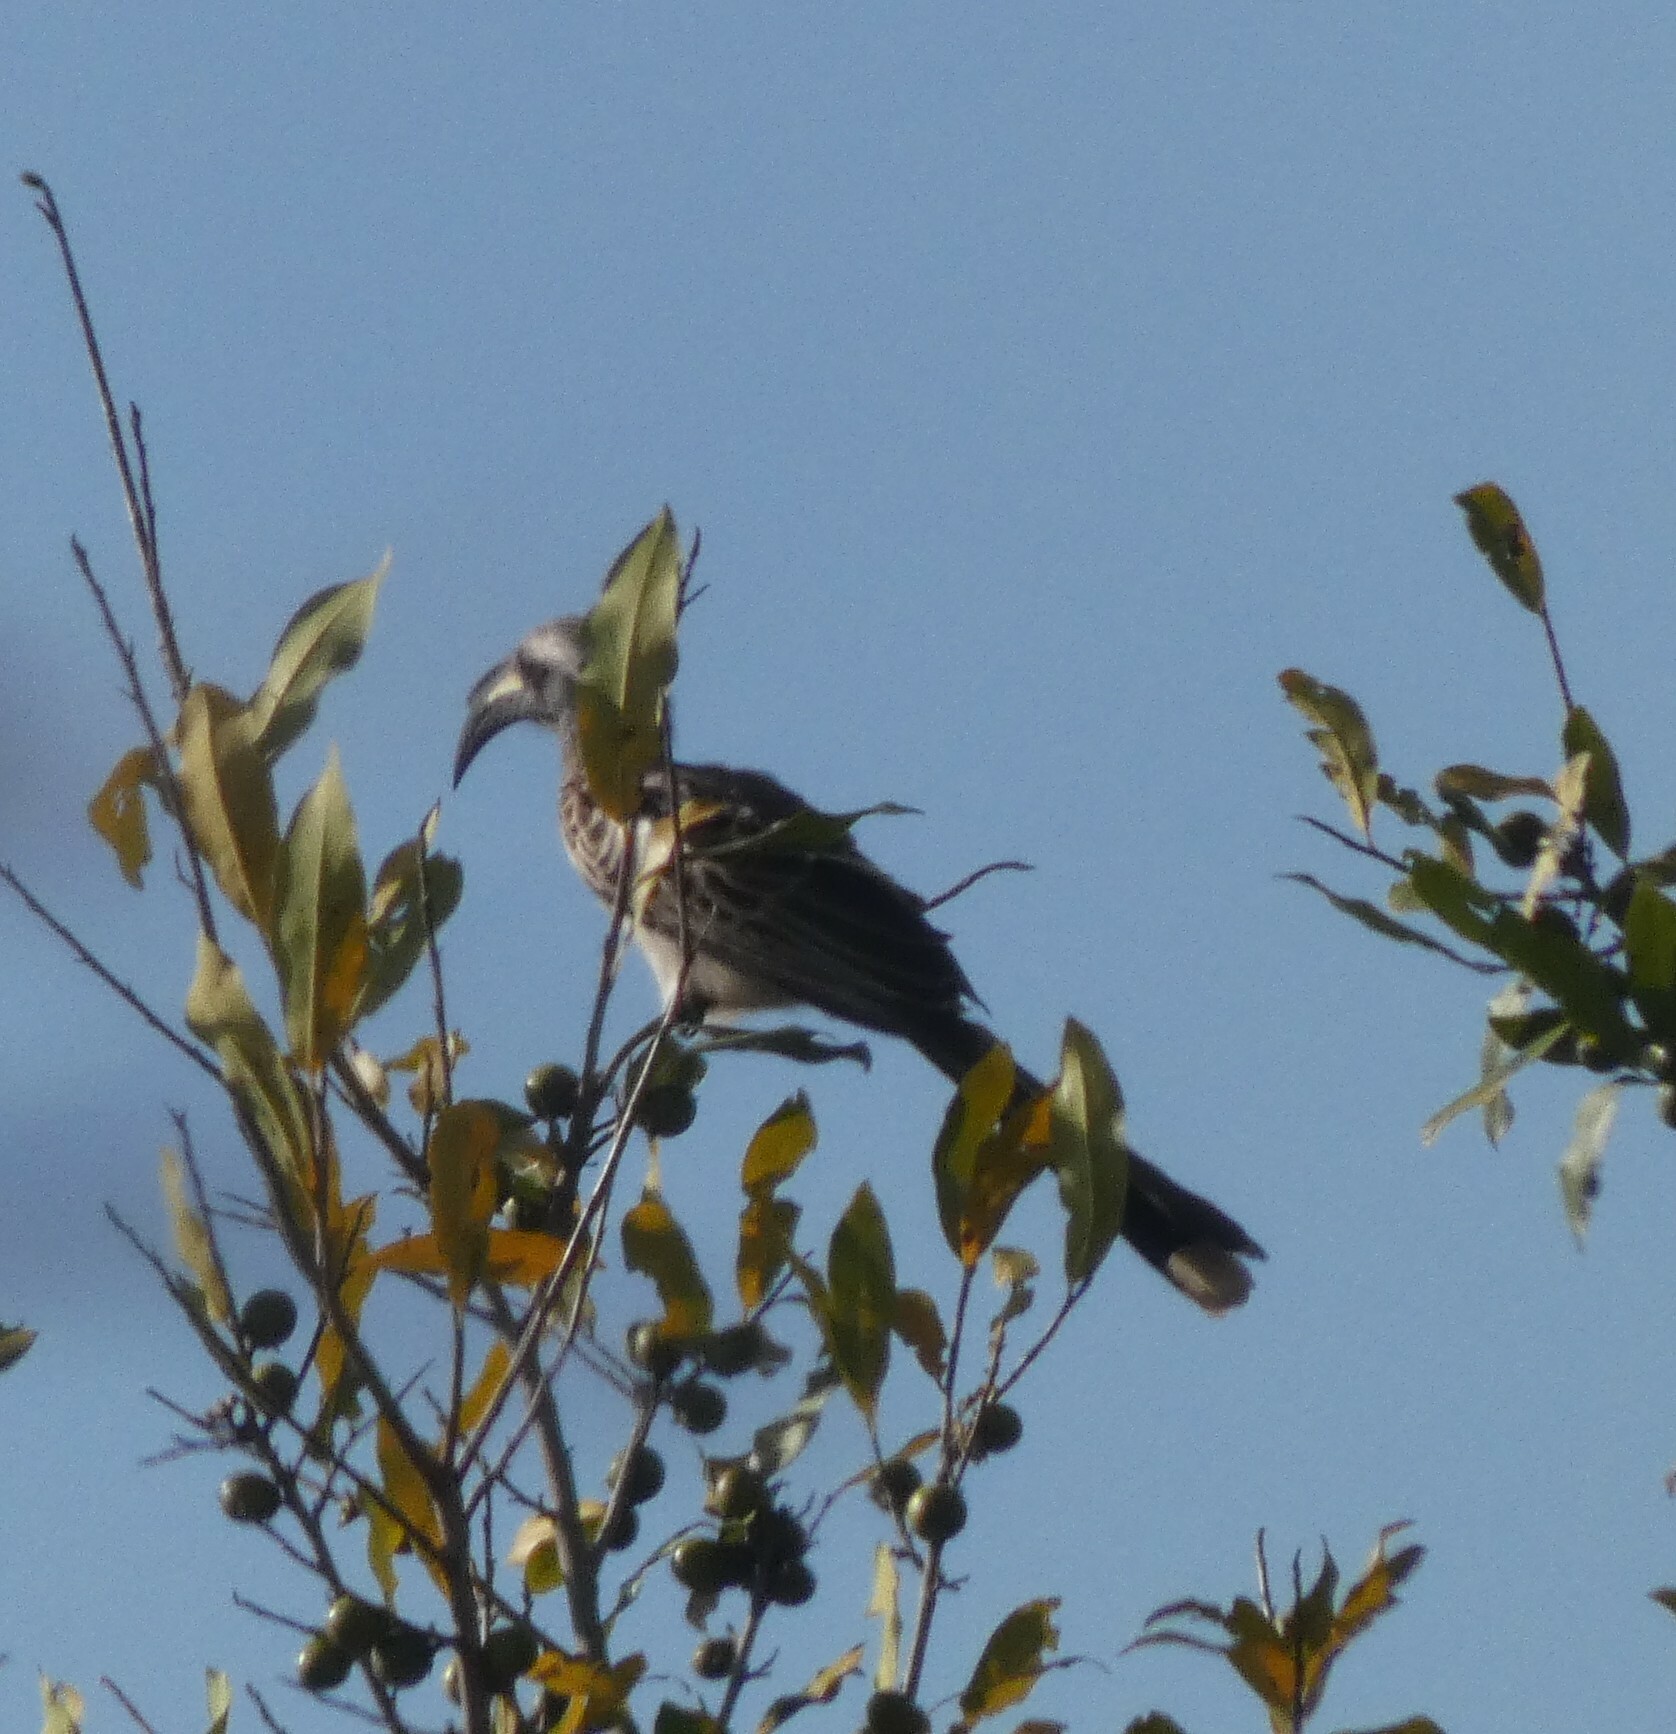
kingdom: Animalia
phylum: Chordata
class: Aves
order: Bucerotiformes
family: Bucerotidae
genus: Lophoceros
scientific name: Lophoceros nasutus
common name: African grey hornbill
